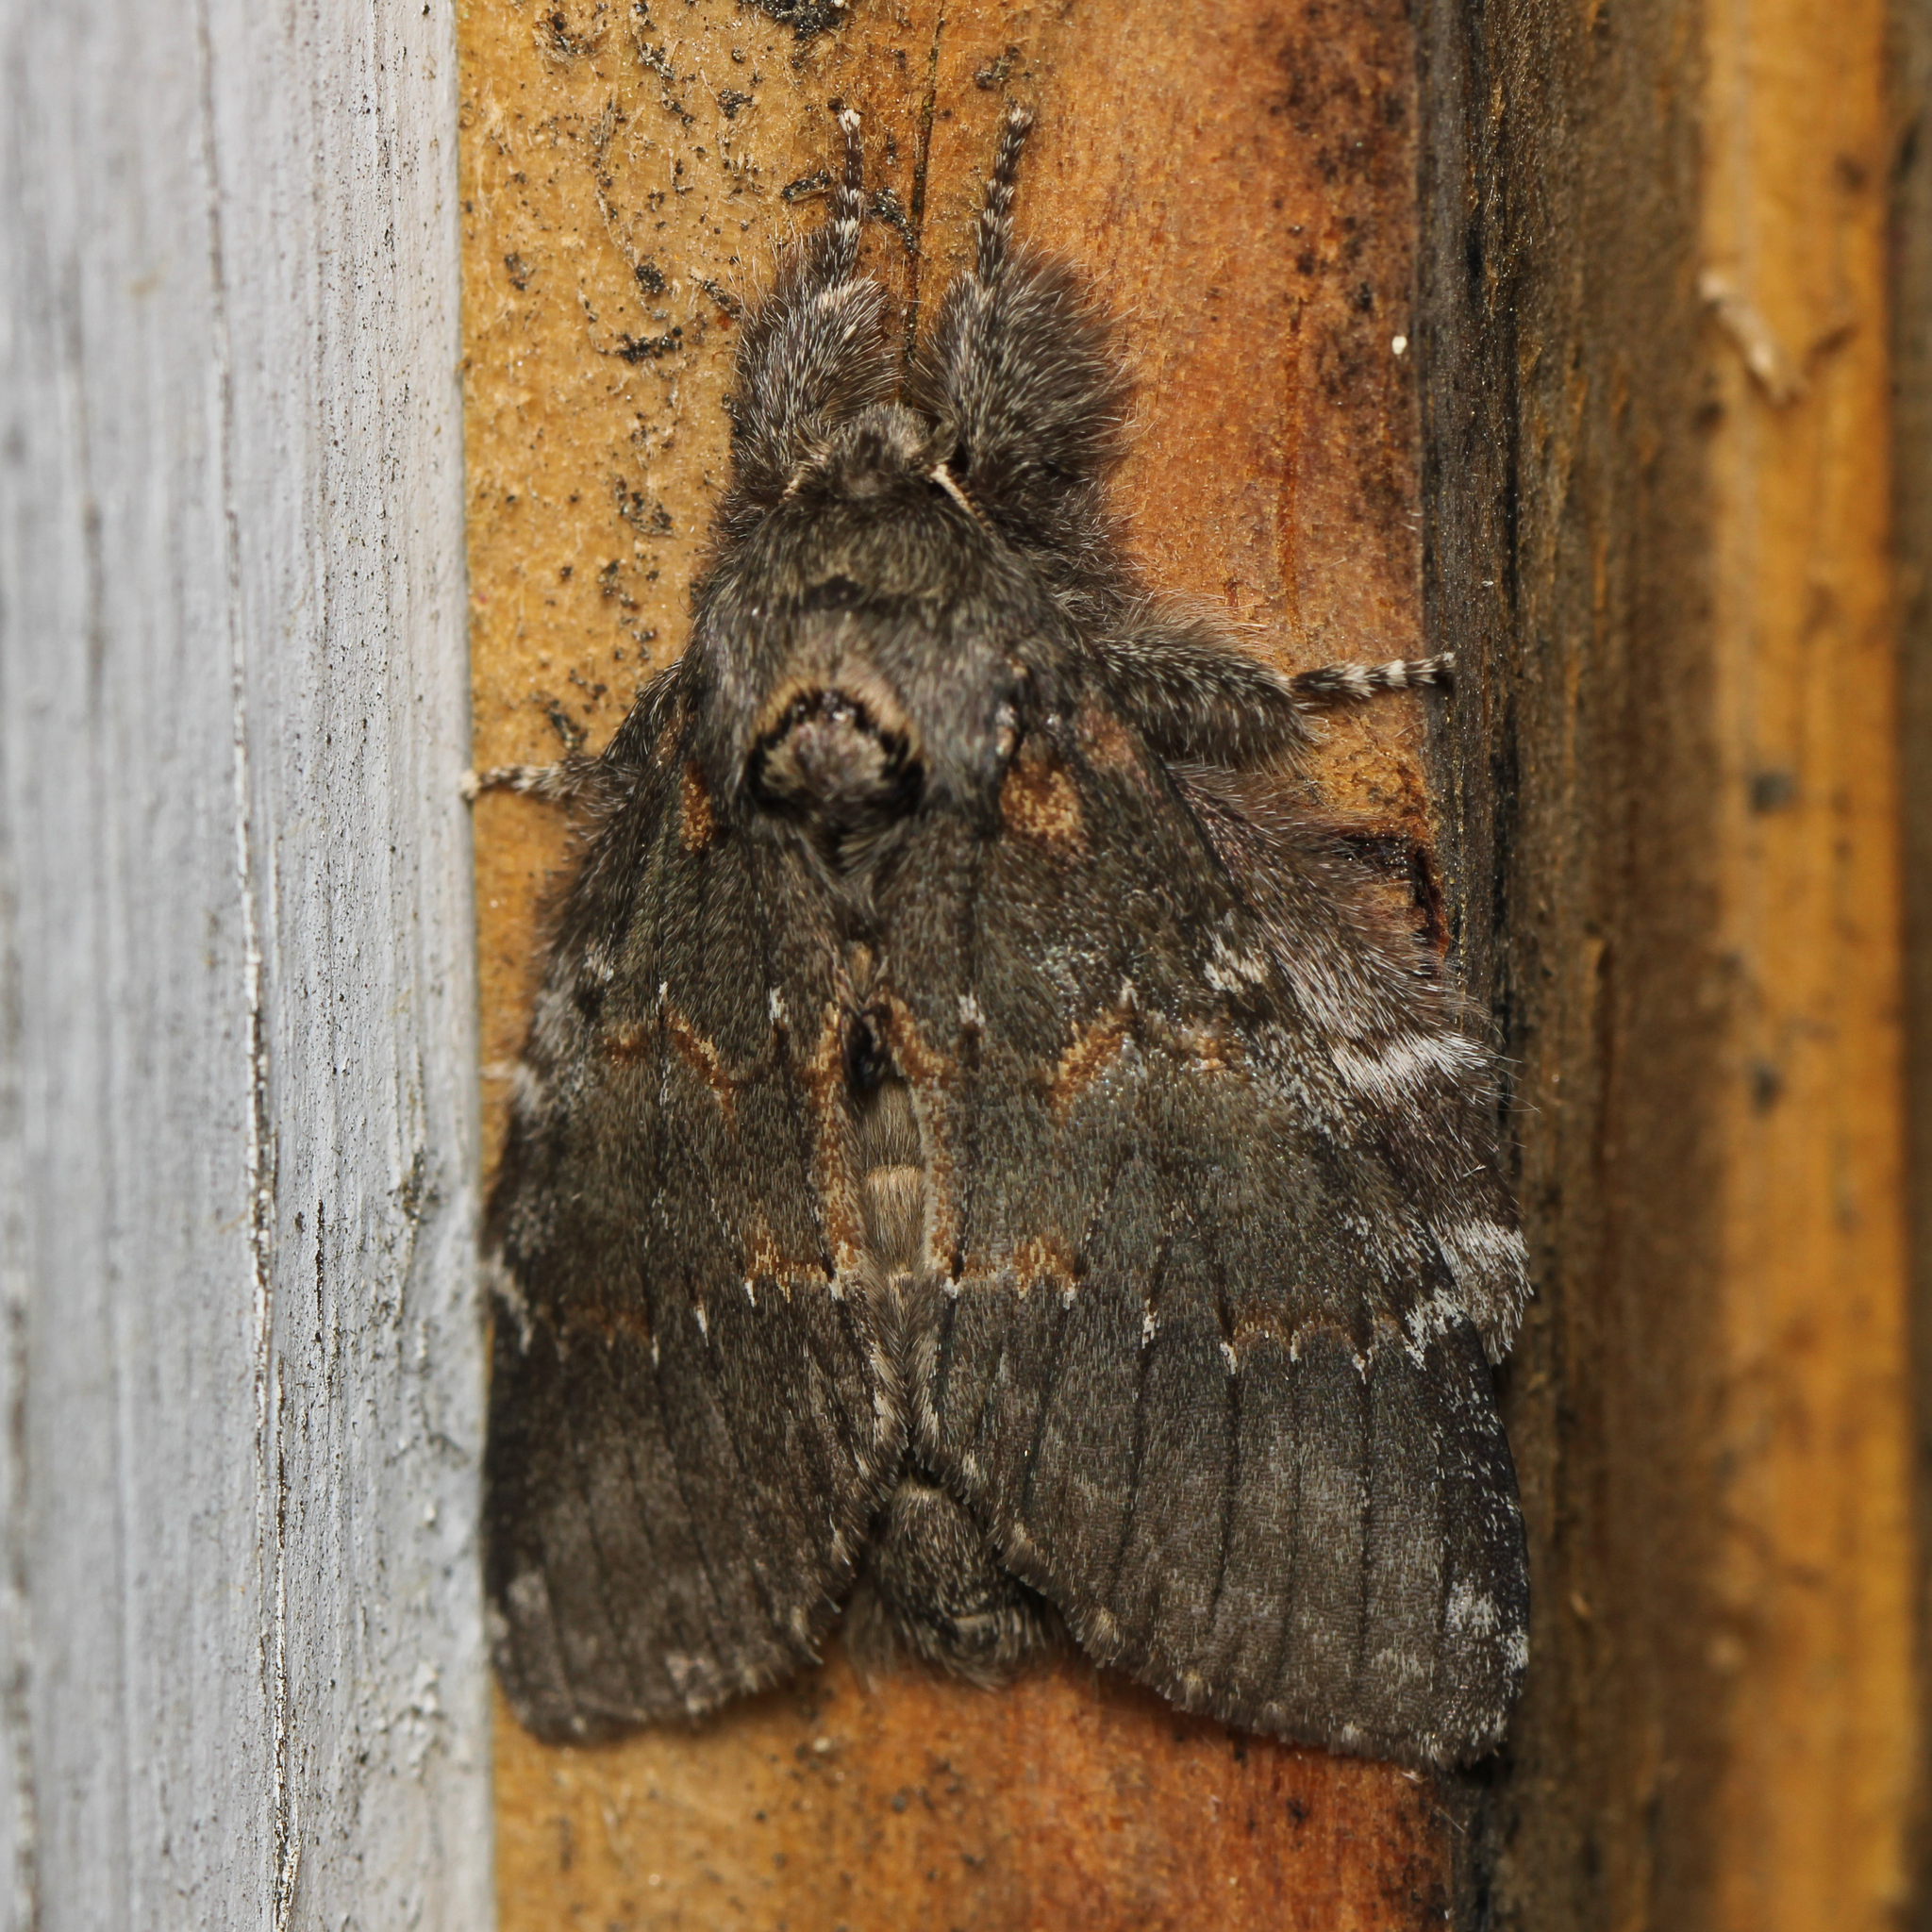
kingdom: Animalia
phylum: Arthropoda
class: Insecta
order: Lepidoptera
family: Notodontidae
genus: Peridea
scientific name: Peridea angulosa
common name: Angulose prominent
